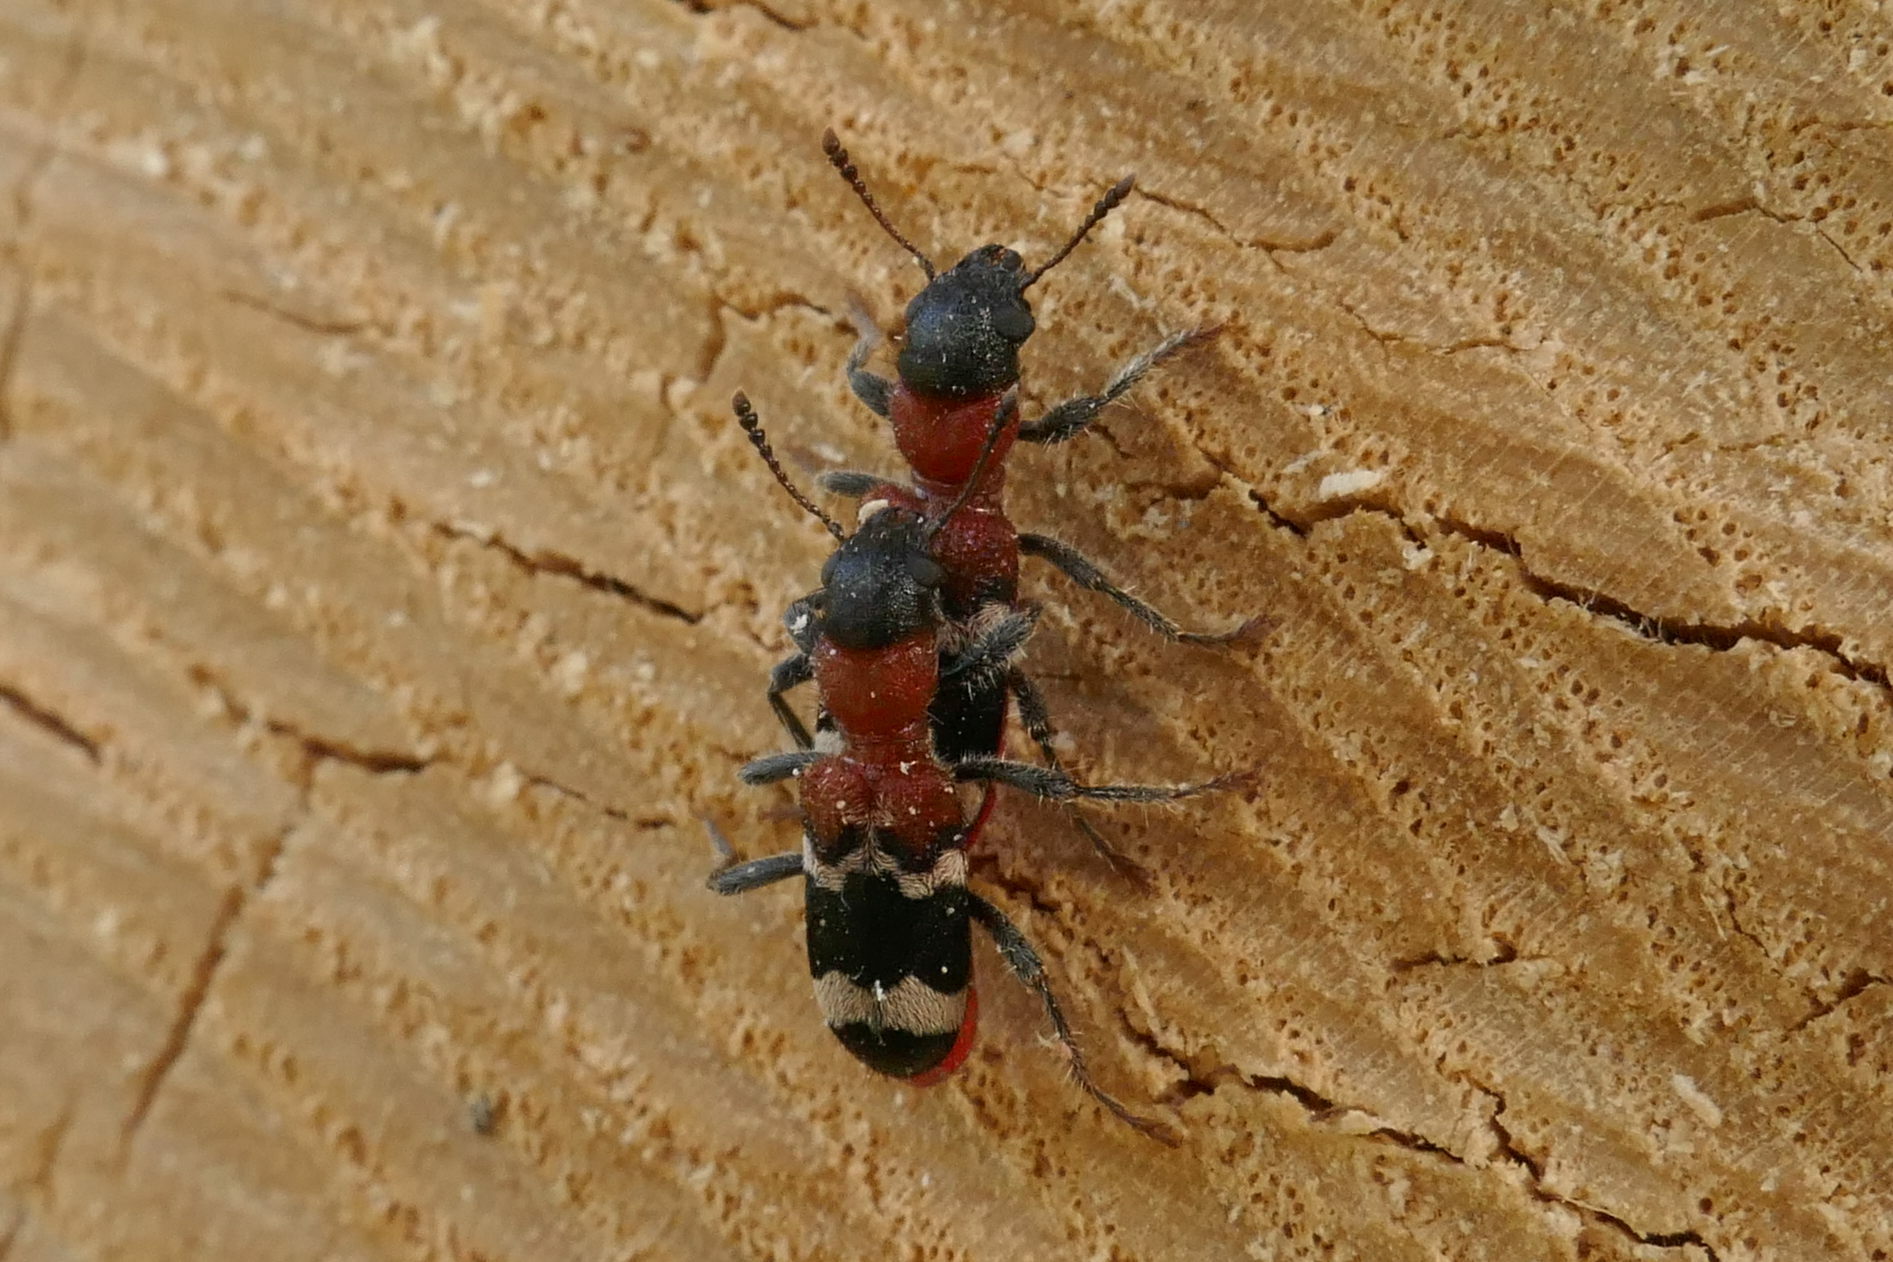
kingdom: Animalia
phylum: Arthropoda
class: Insecta
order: Coleoptera
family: Cleridae
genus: Thanasimus
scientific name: Thanasimus formicarius
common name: Ant beetle
